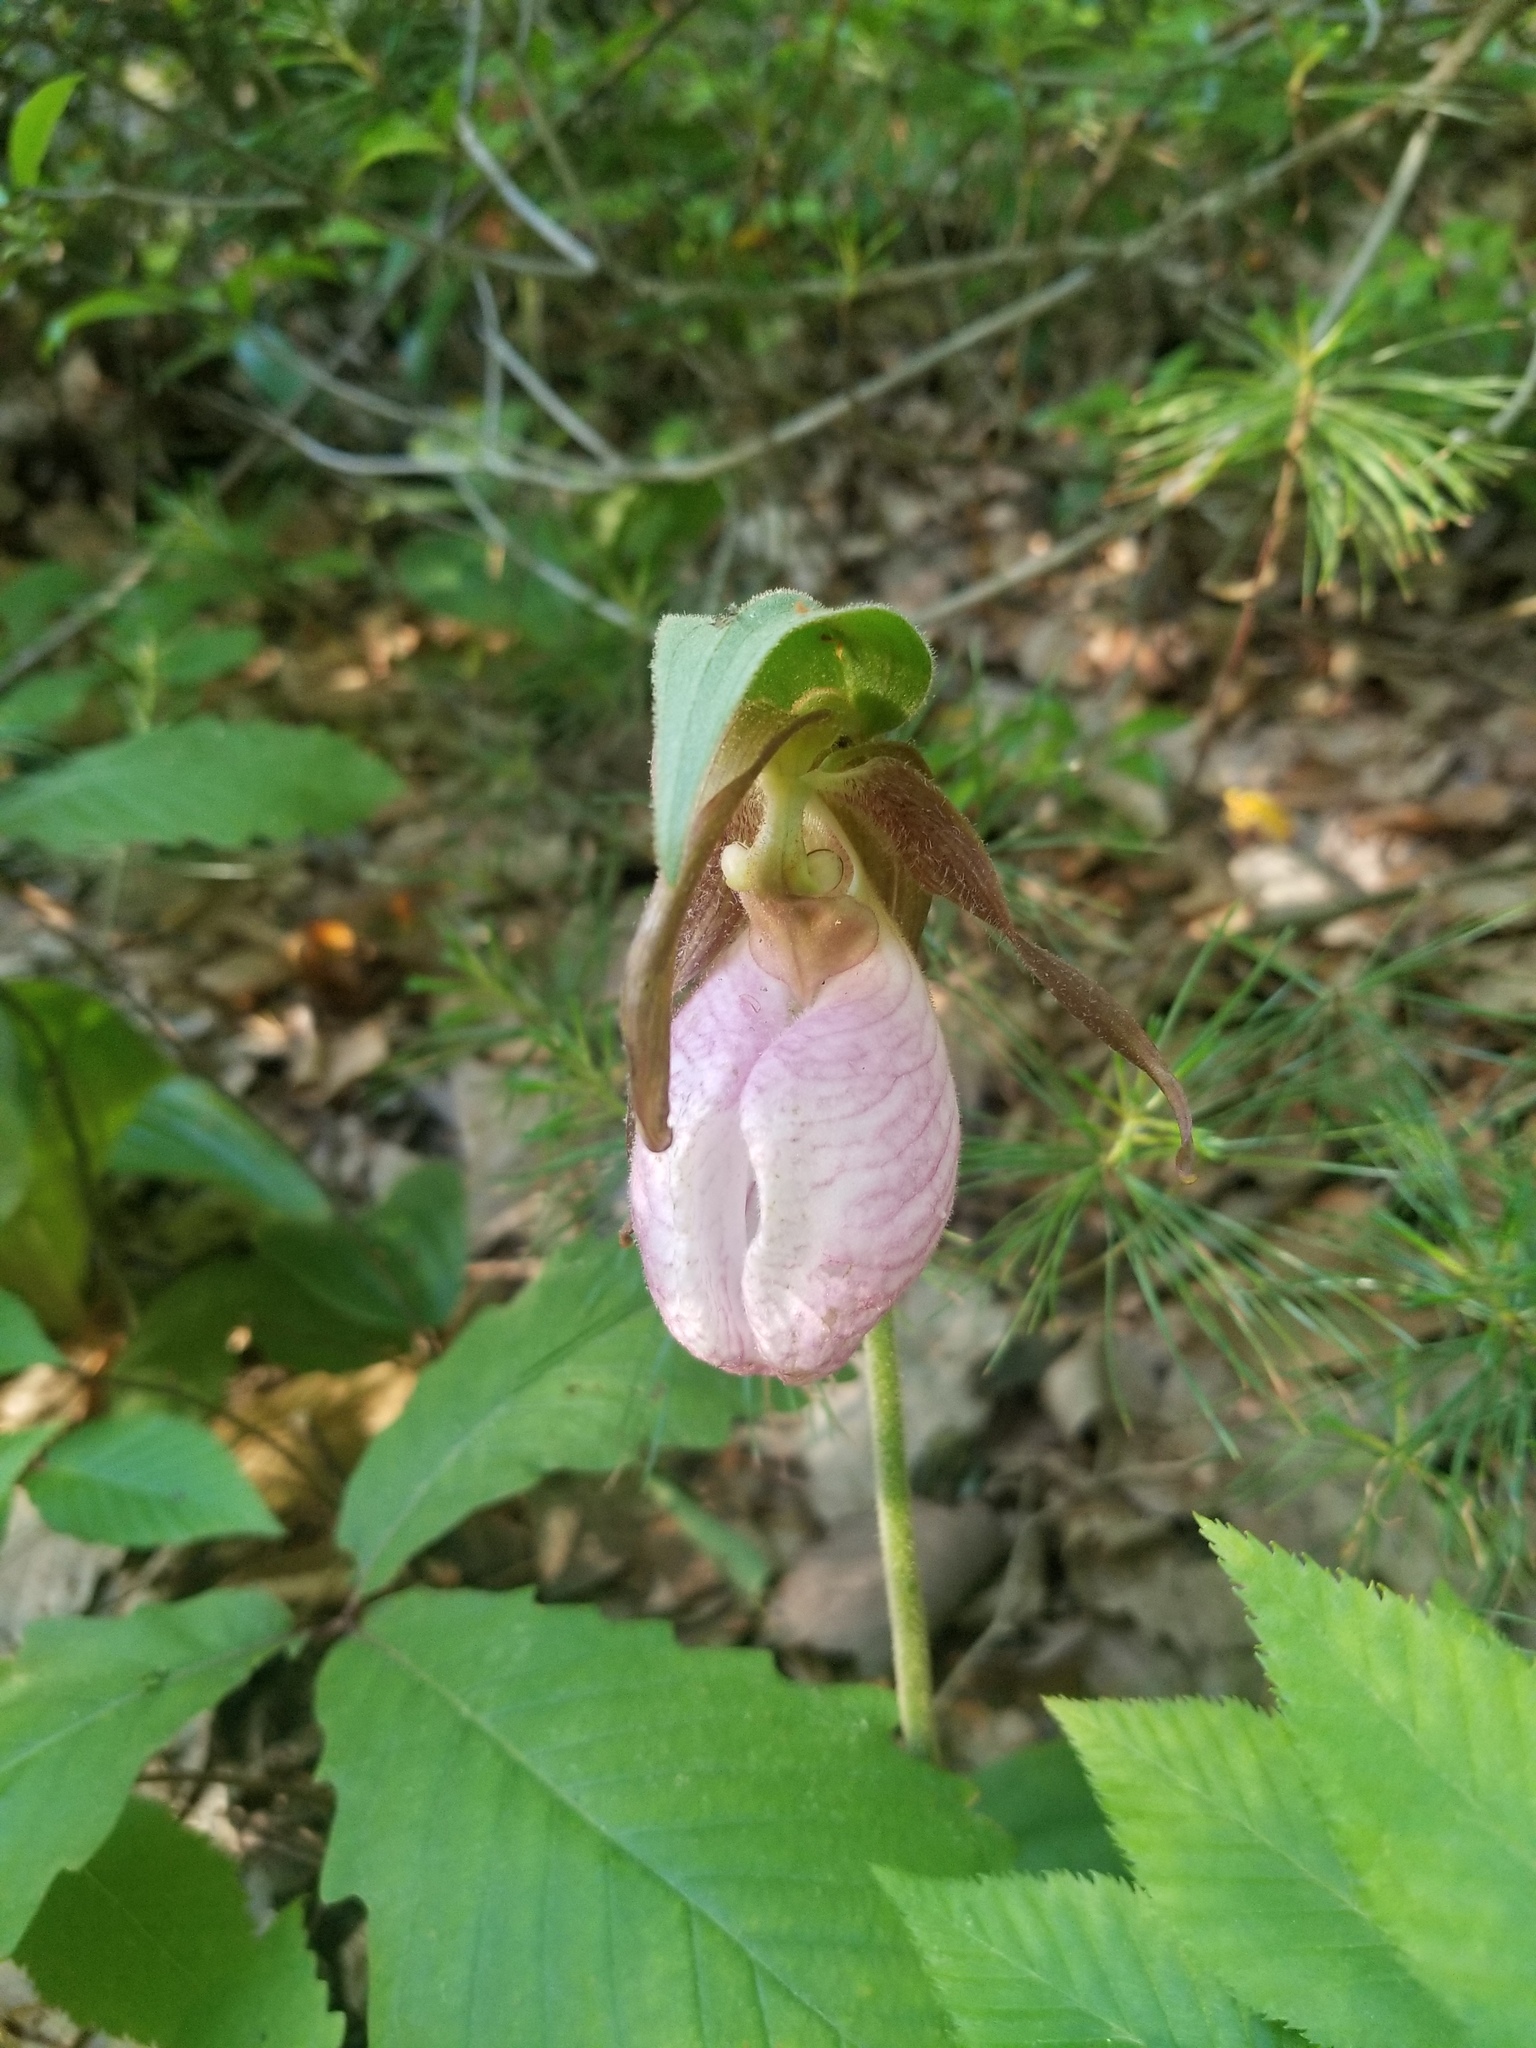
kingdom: Plantae
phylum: Tracheophyta
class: Liliopsida
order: Asparagales
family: Orchidaceae
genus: Cypripedium
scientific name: Cypripedium acaule
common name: Pink lady's-slipper
